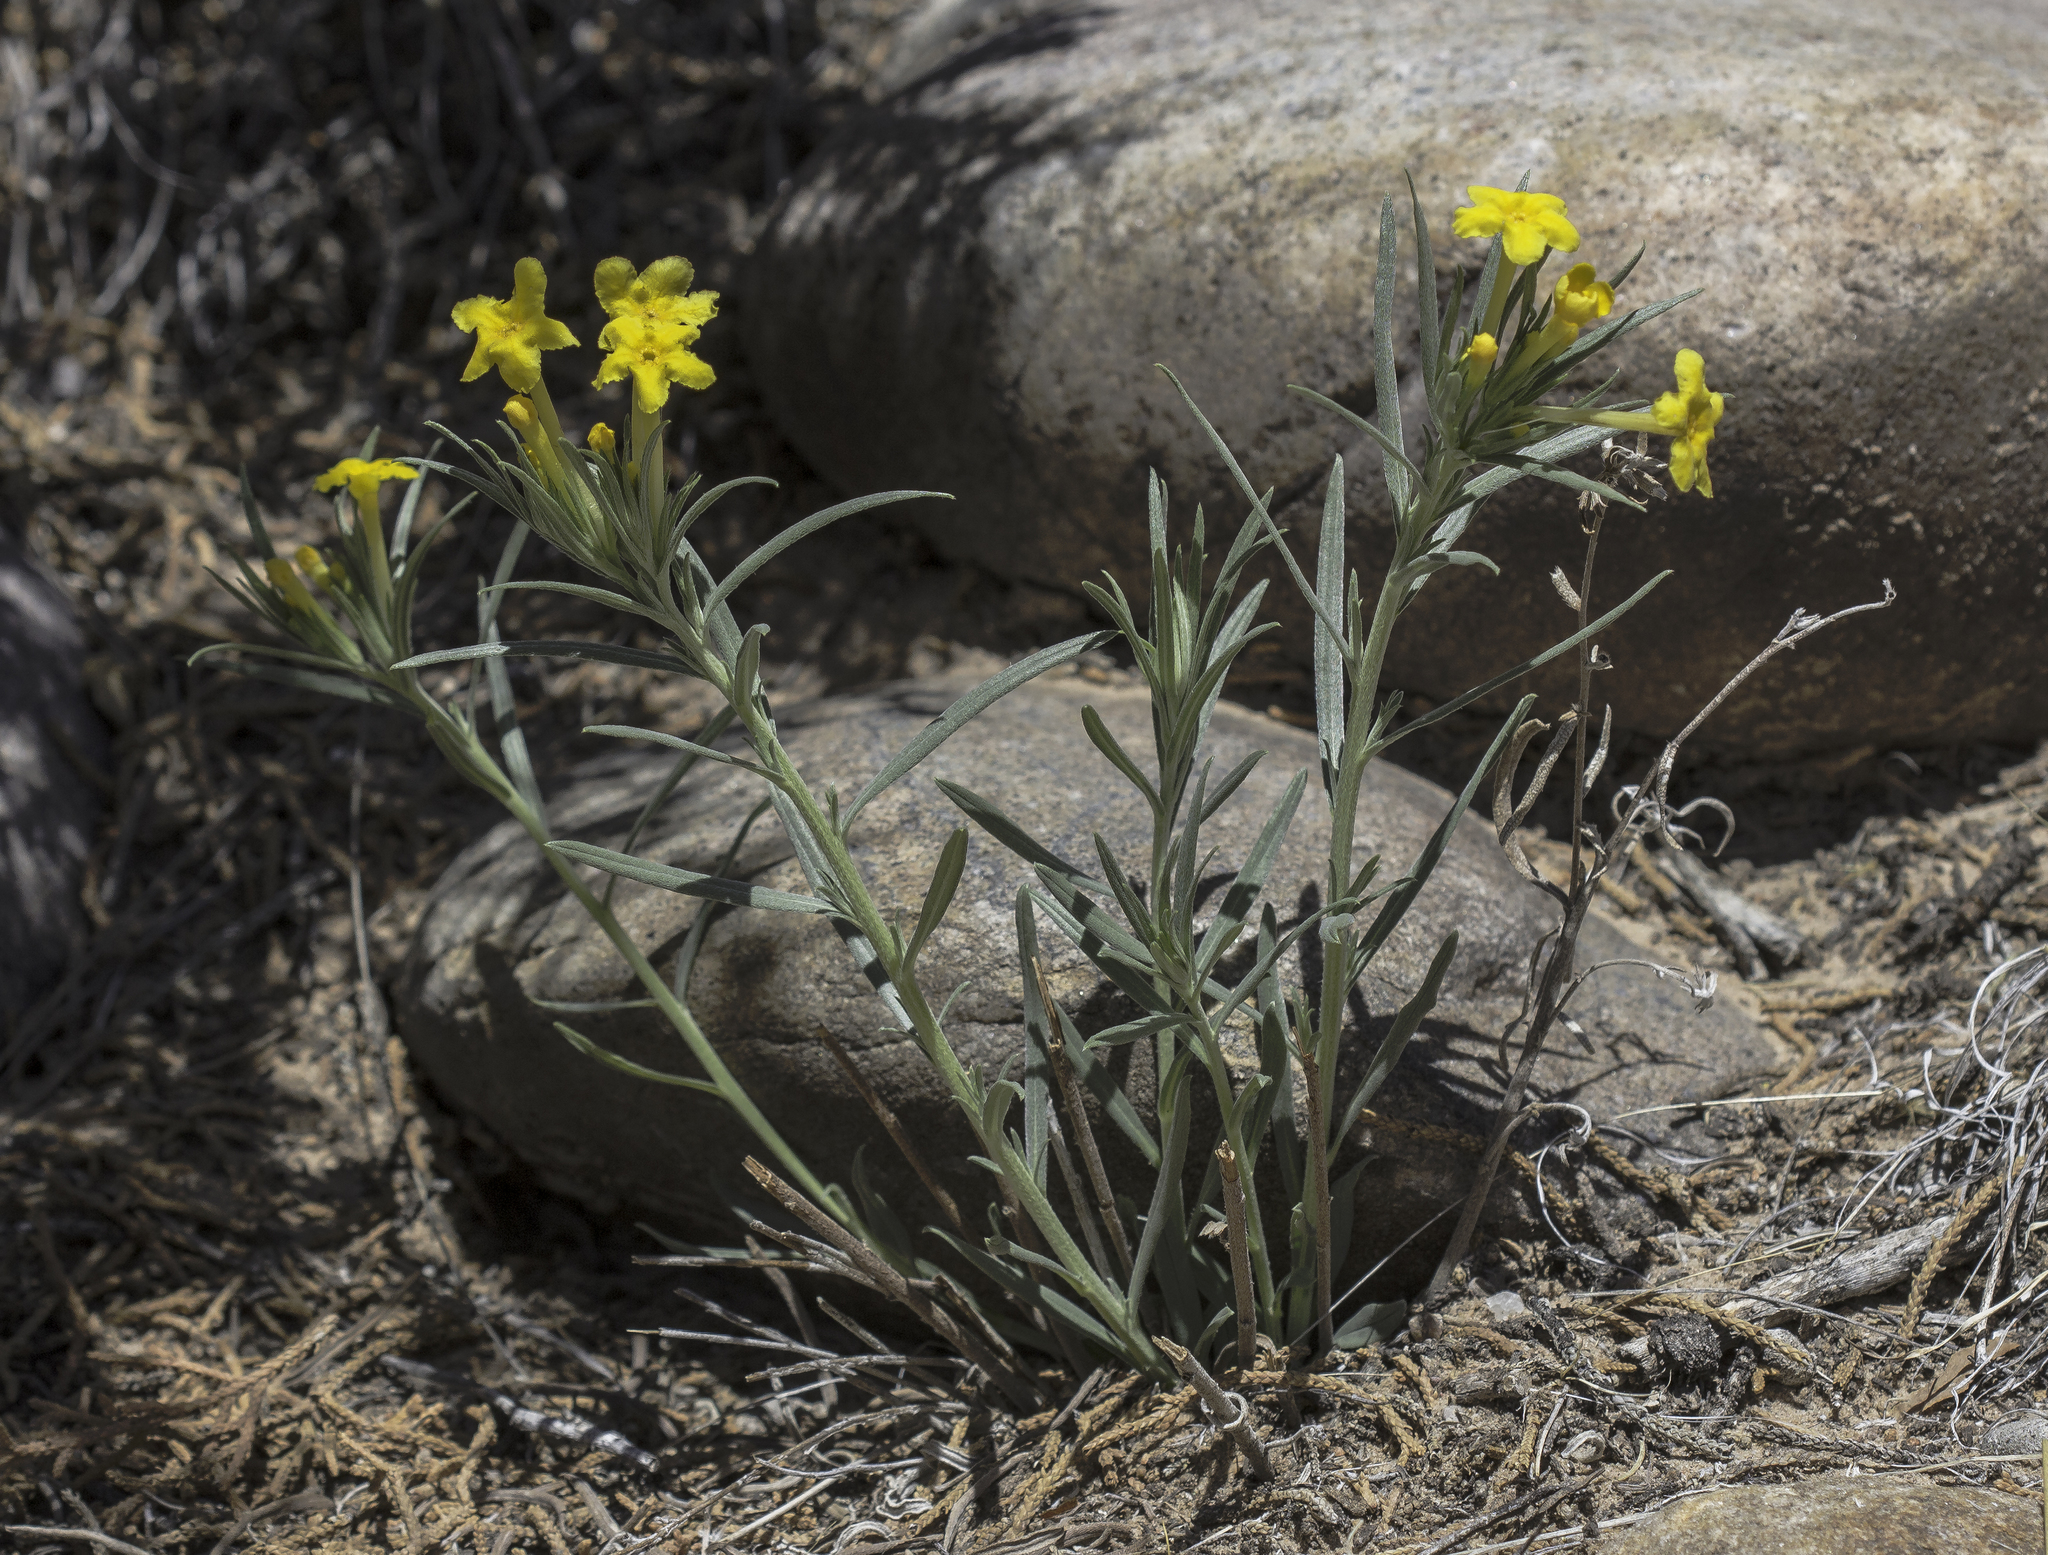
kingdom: Plantae
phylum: Tracheophyta
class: Magnoliopsida
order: Boraginales
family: Boraginaceae
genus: Lithospermum
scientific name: Lithospermum incisum
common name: Fringed gromwell
